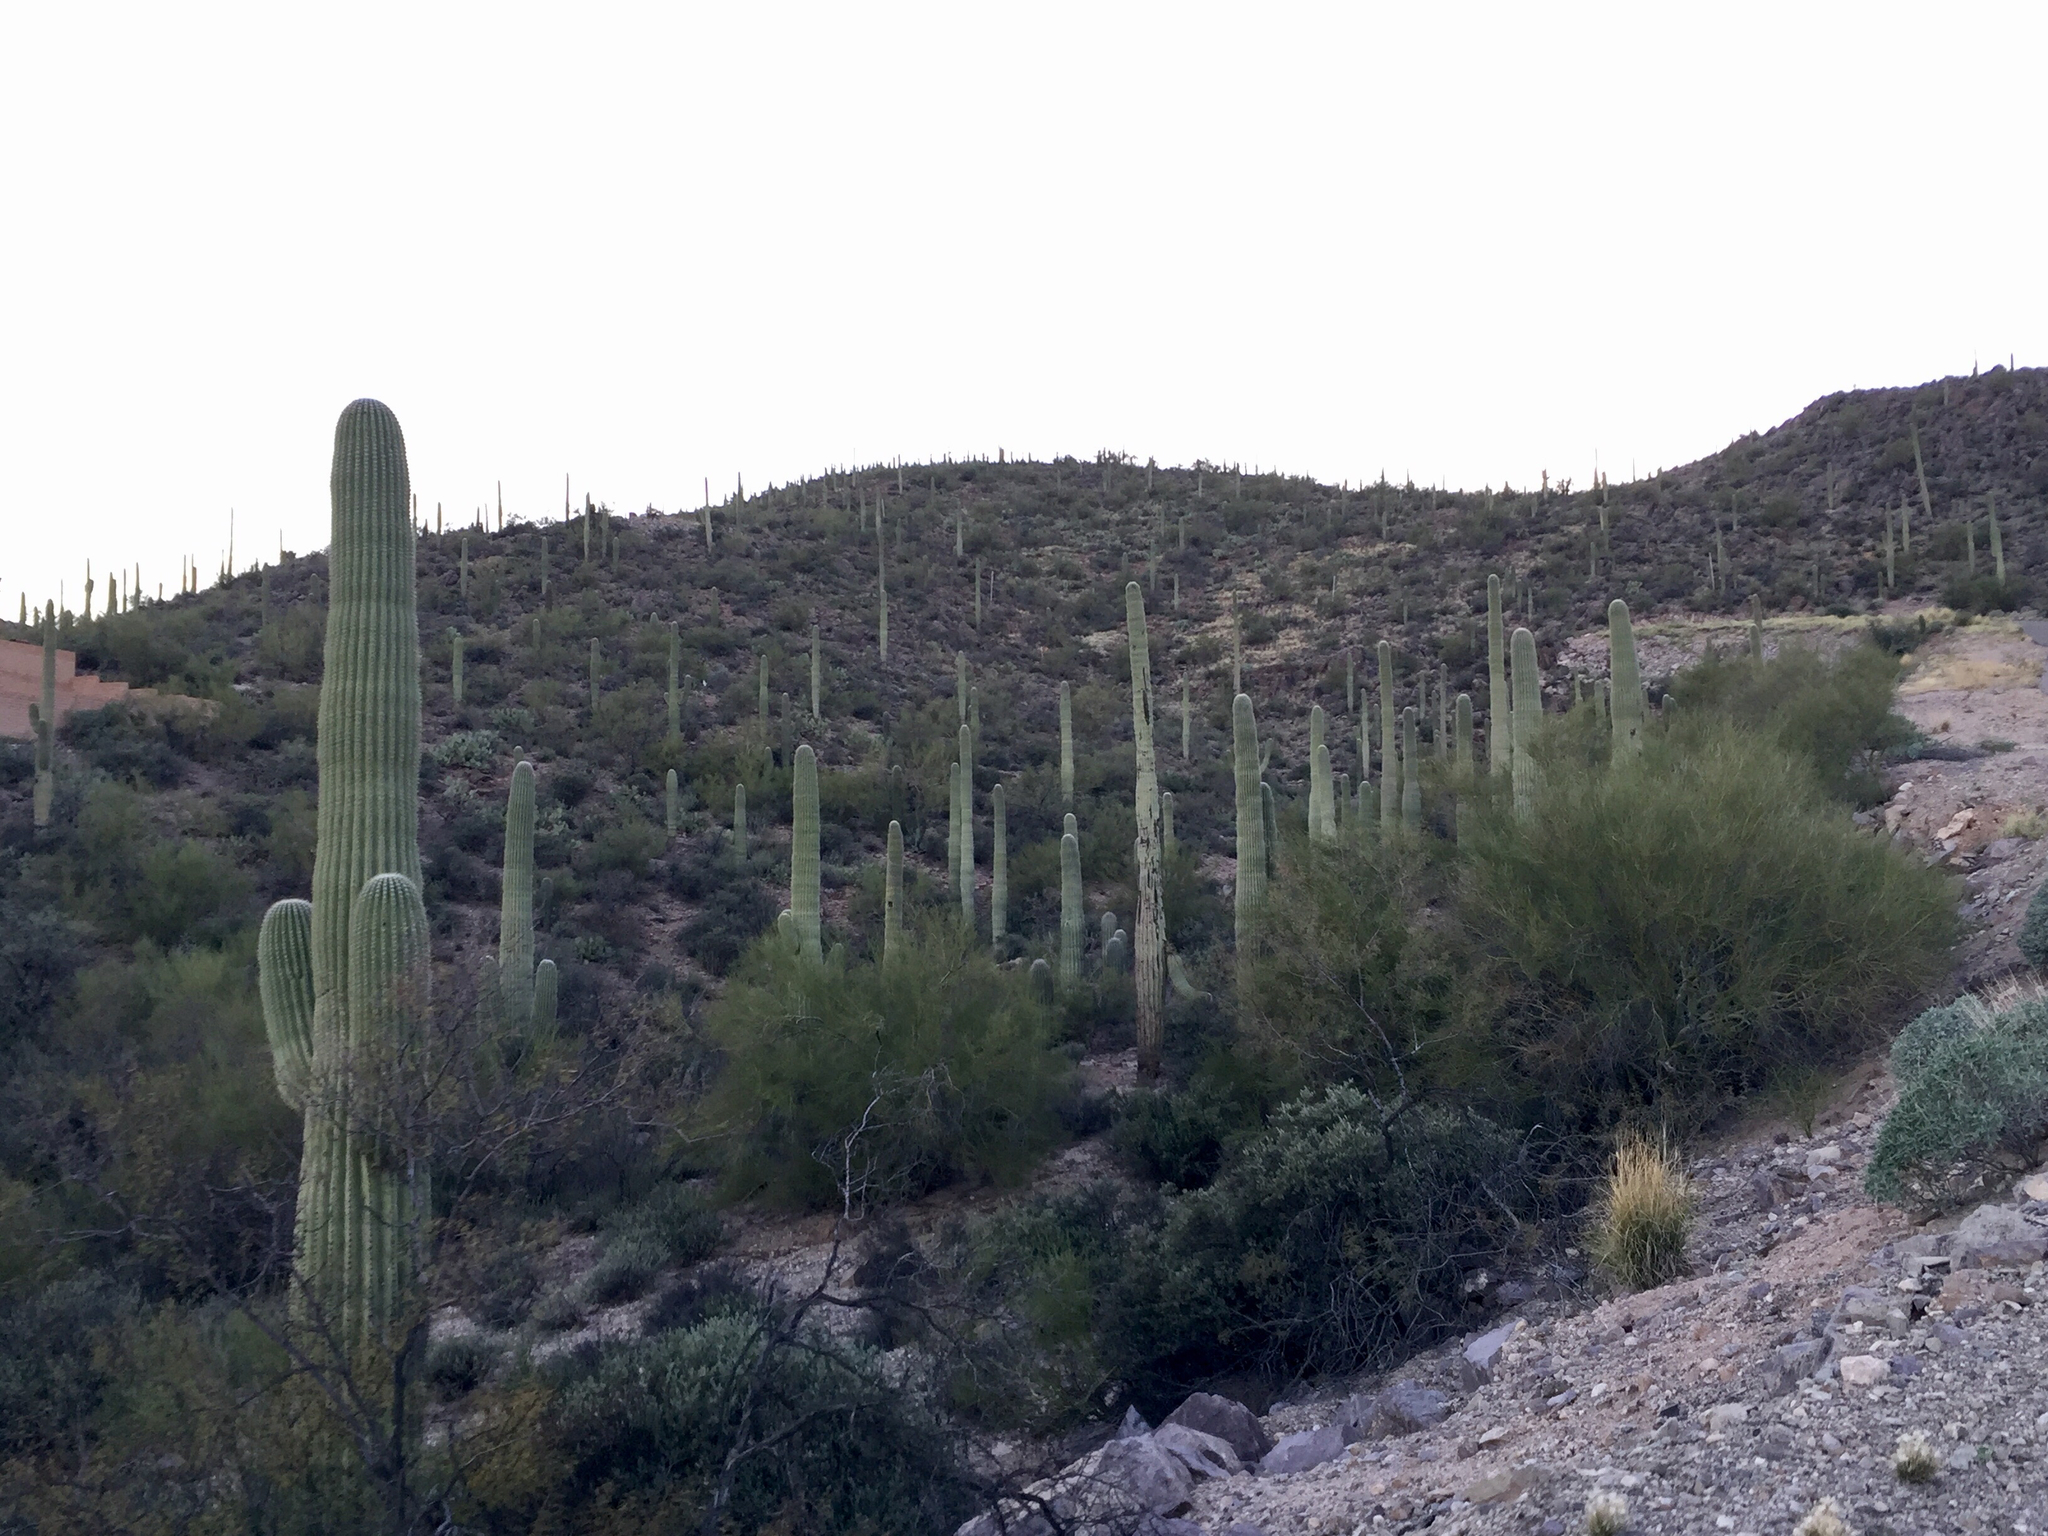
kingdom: Plantae
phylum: Tracheophyta
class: Magnoliopsida
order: Caryophyllales
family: Cactaceae
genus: Carnegiea
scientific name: Carnegiea gigantea
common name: Saguaro
